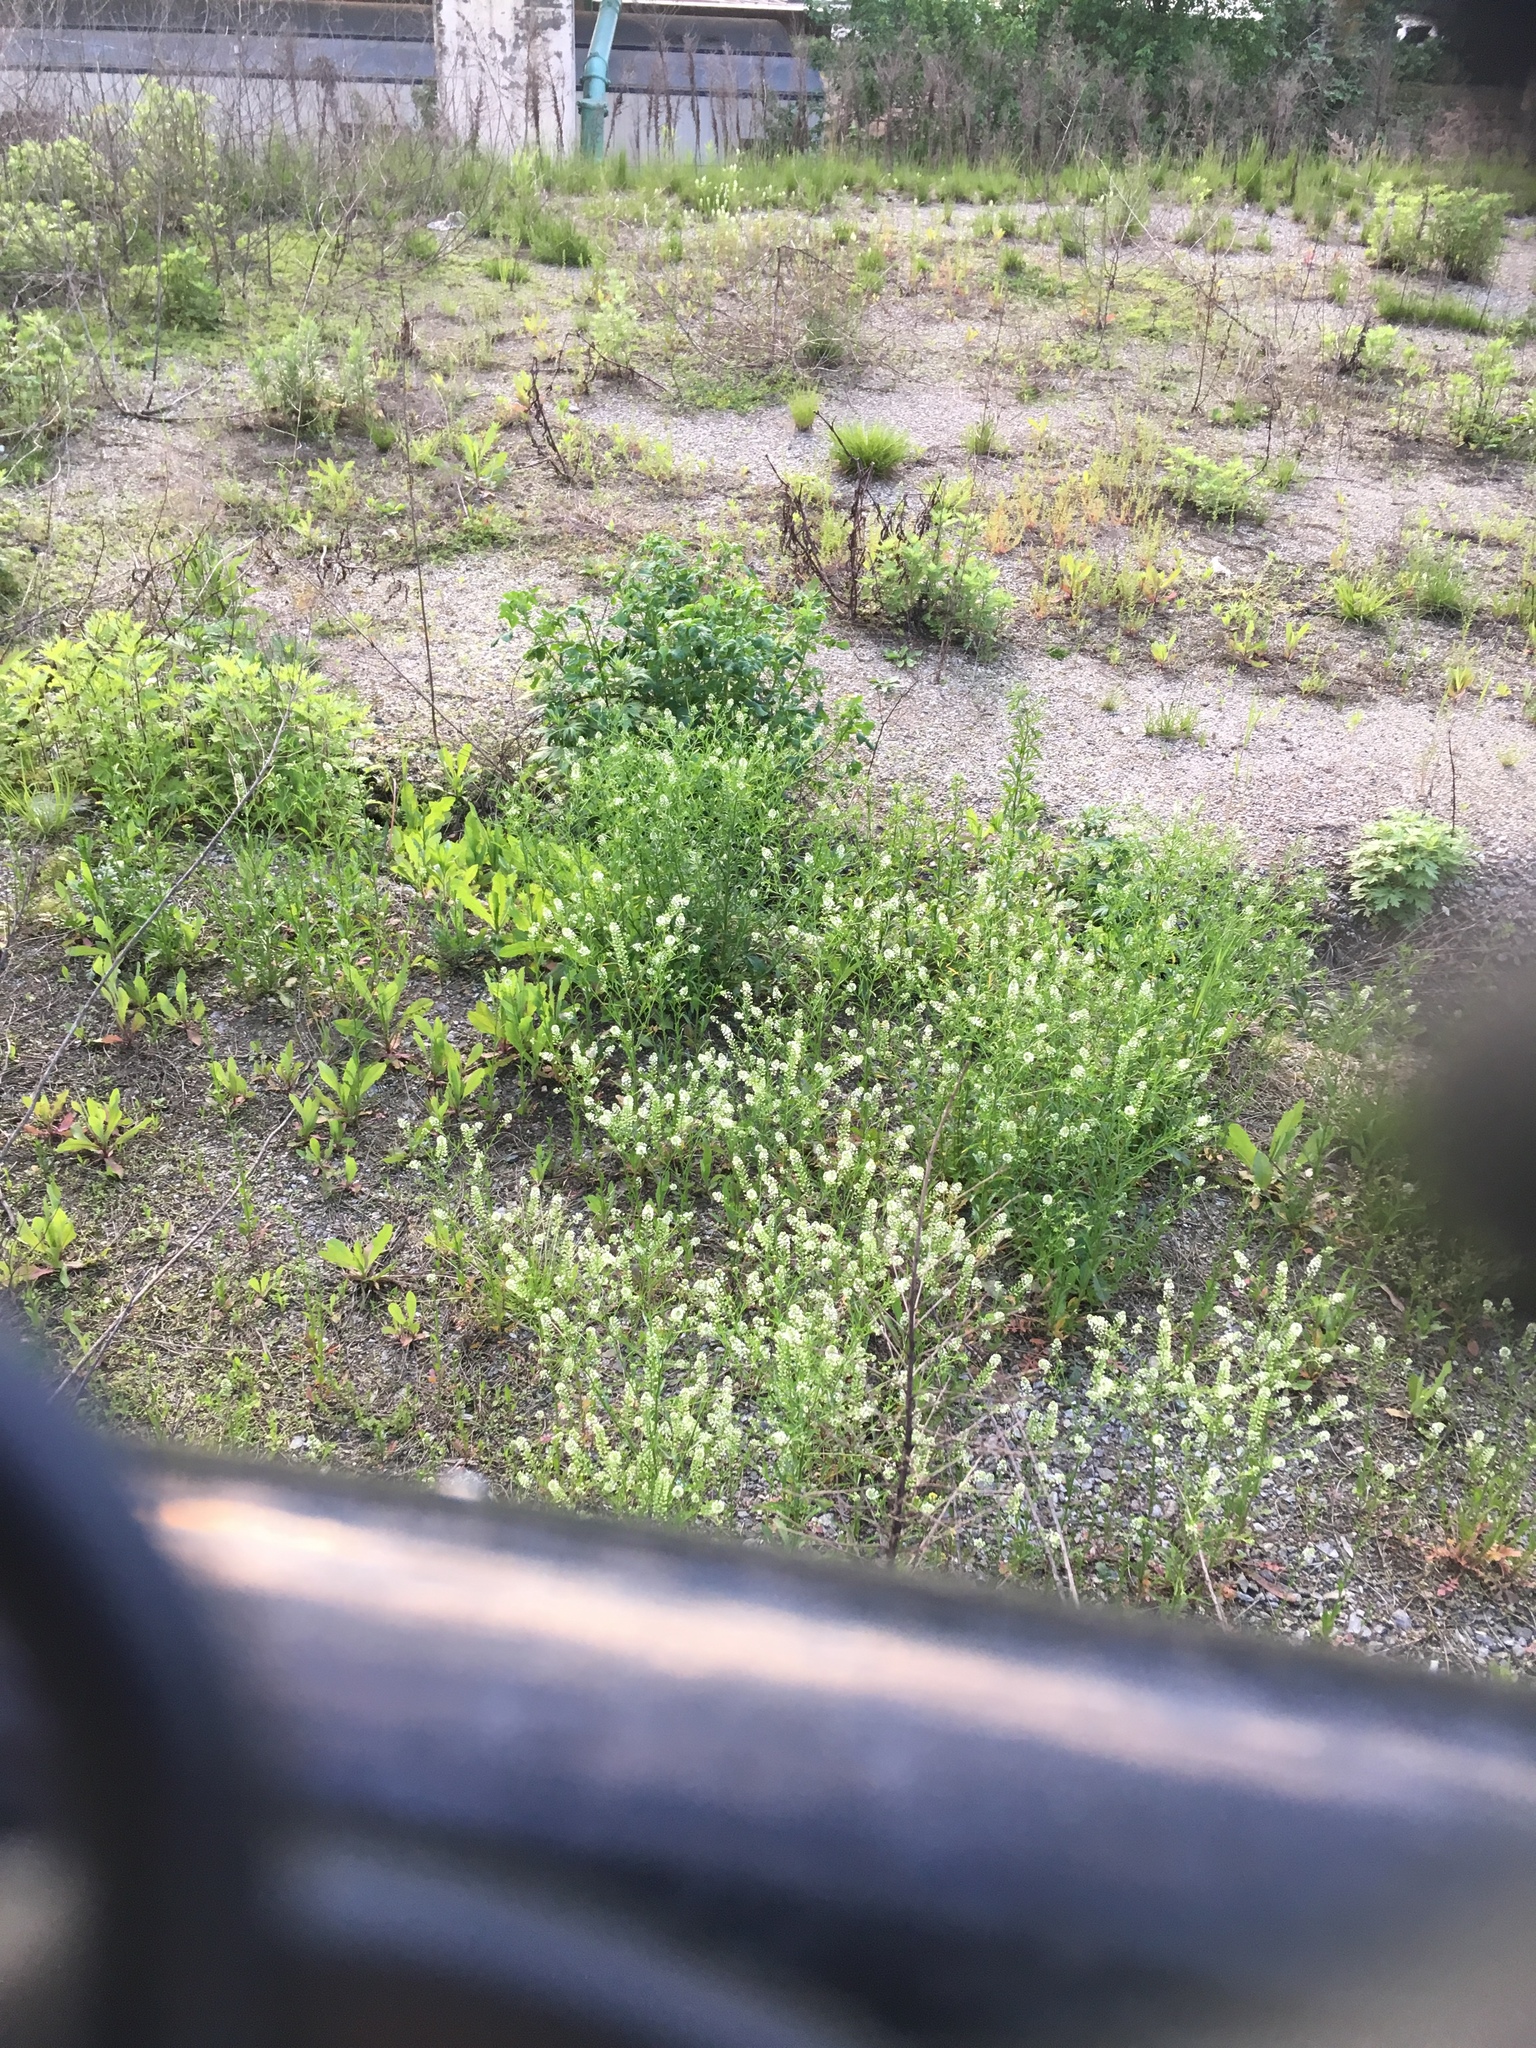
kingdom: Plantae
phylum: Tracheophyta
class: Magnoliopsida
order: Brassicales
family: Brassicaceae
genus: Lepidium
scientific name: Lepidium virginicum
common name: Least pepperwort
